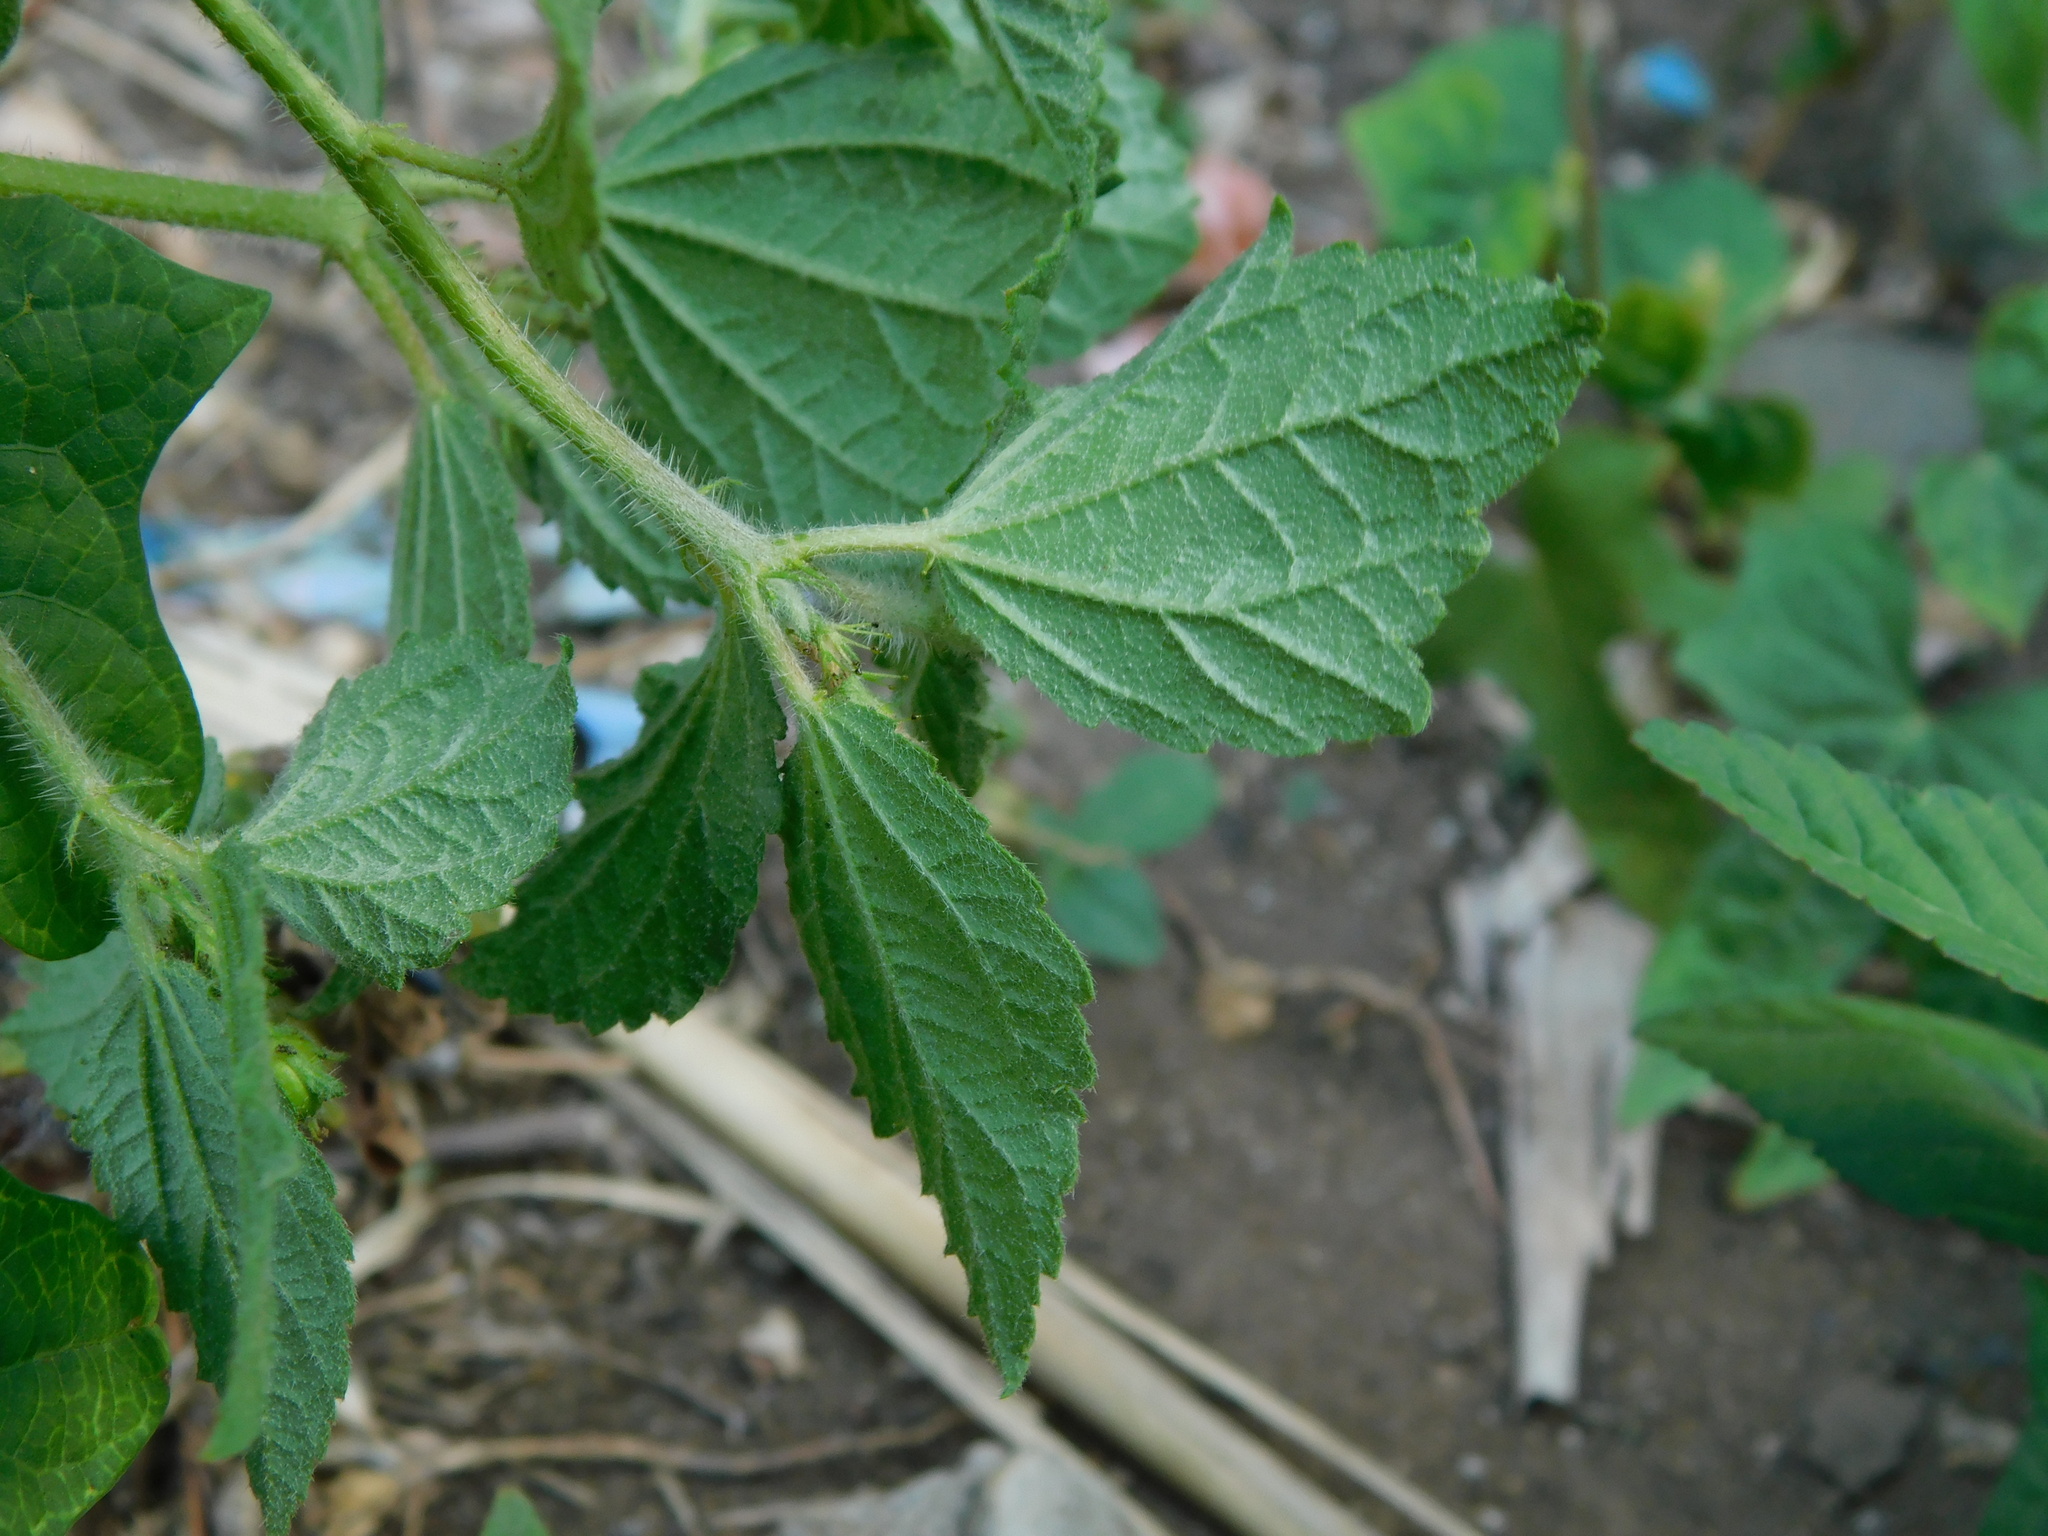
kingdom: Plantae
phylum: Tracheophyta
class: Magnoliopsida
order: Malpighiales
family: Euphorbiaceae
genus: Croton
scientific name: Croton hirtus
